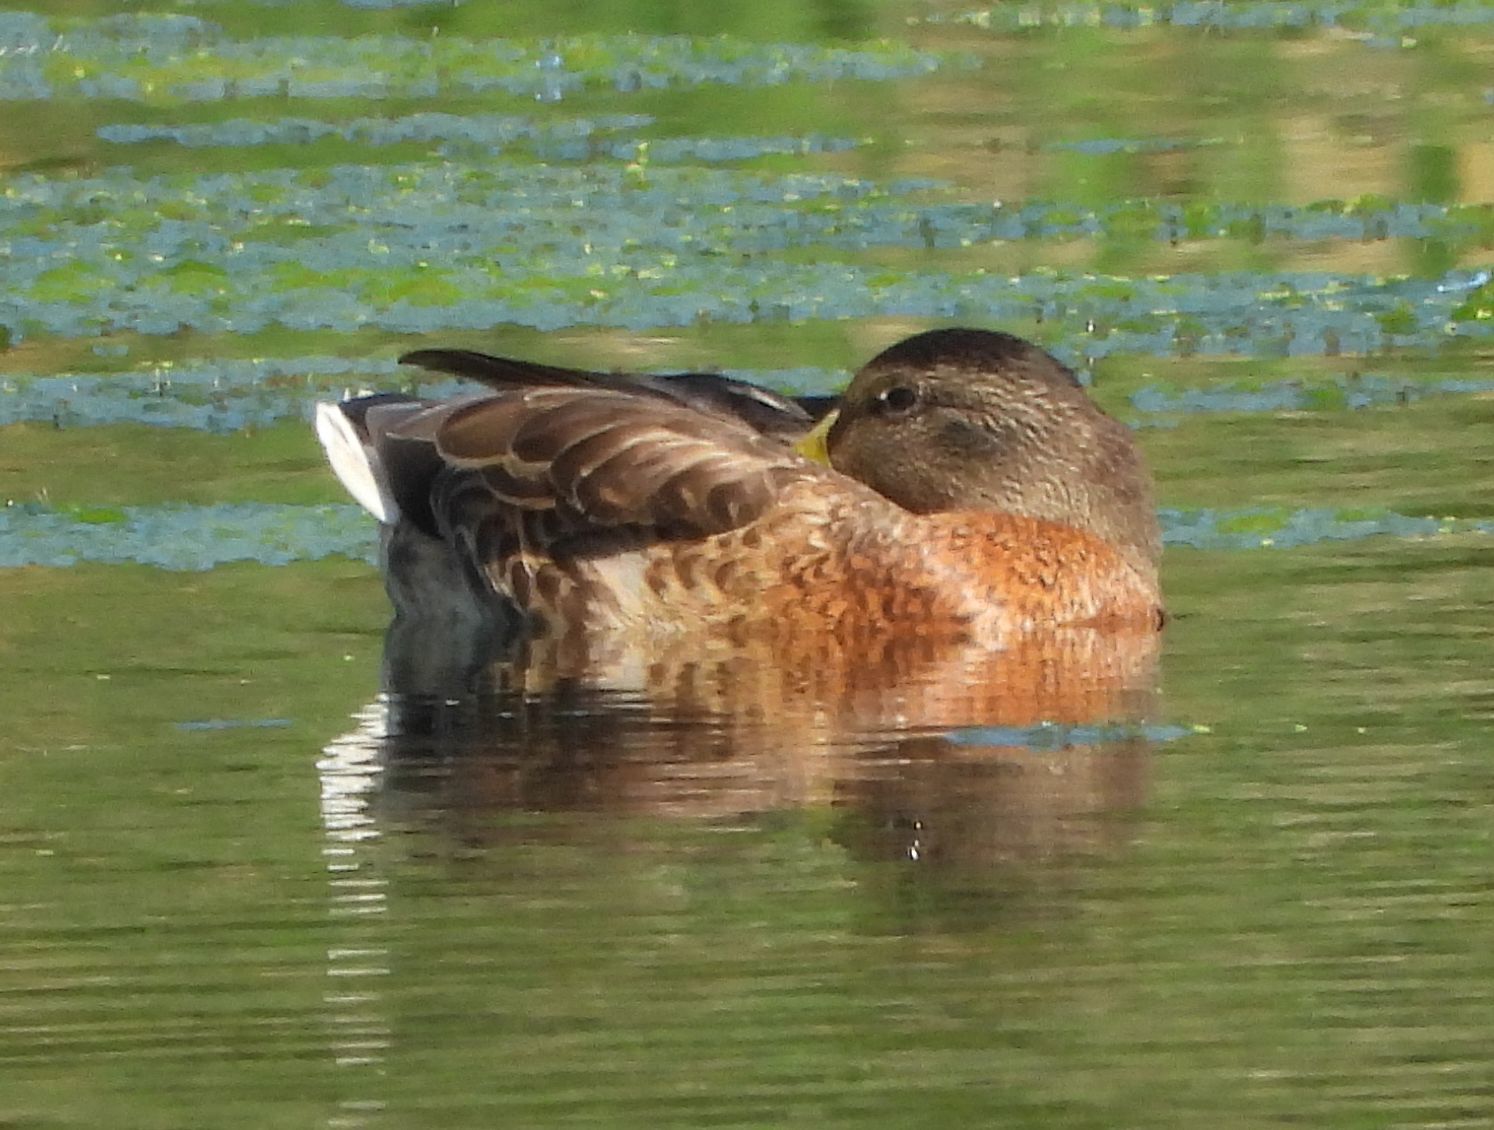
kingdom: Animalia
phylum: Chordata
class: Aves
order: Anseriformes
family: Anatidae
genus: Anas
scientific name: Anas platyrhynchos
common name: Mallard
